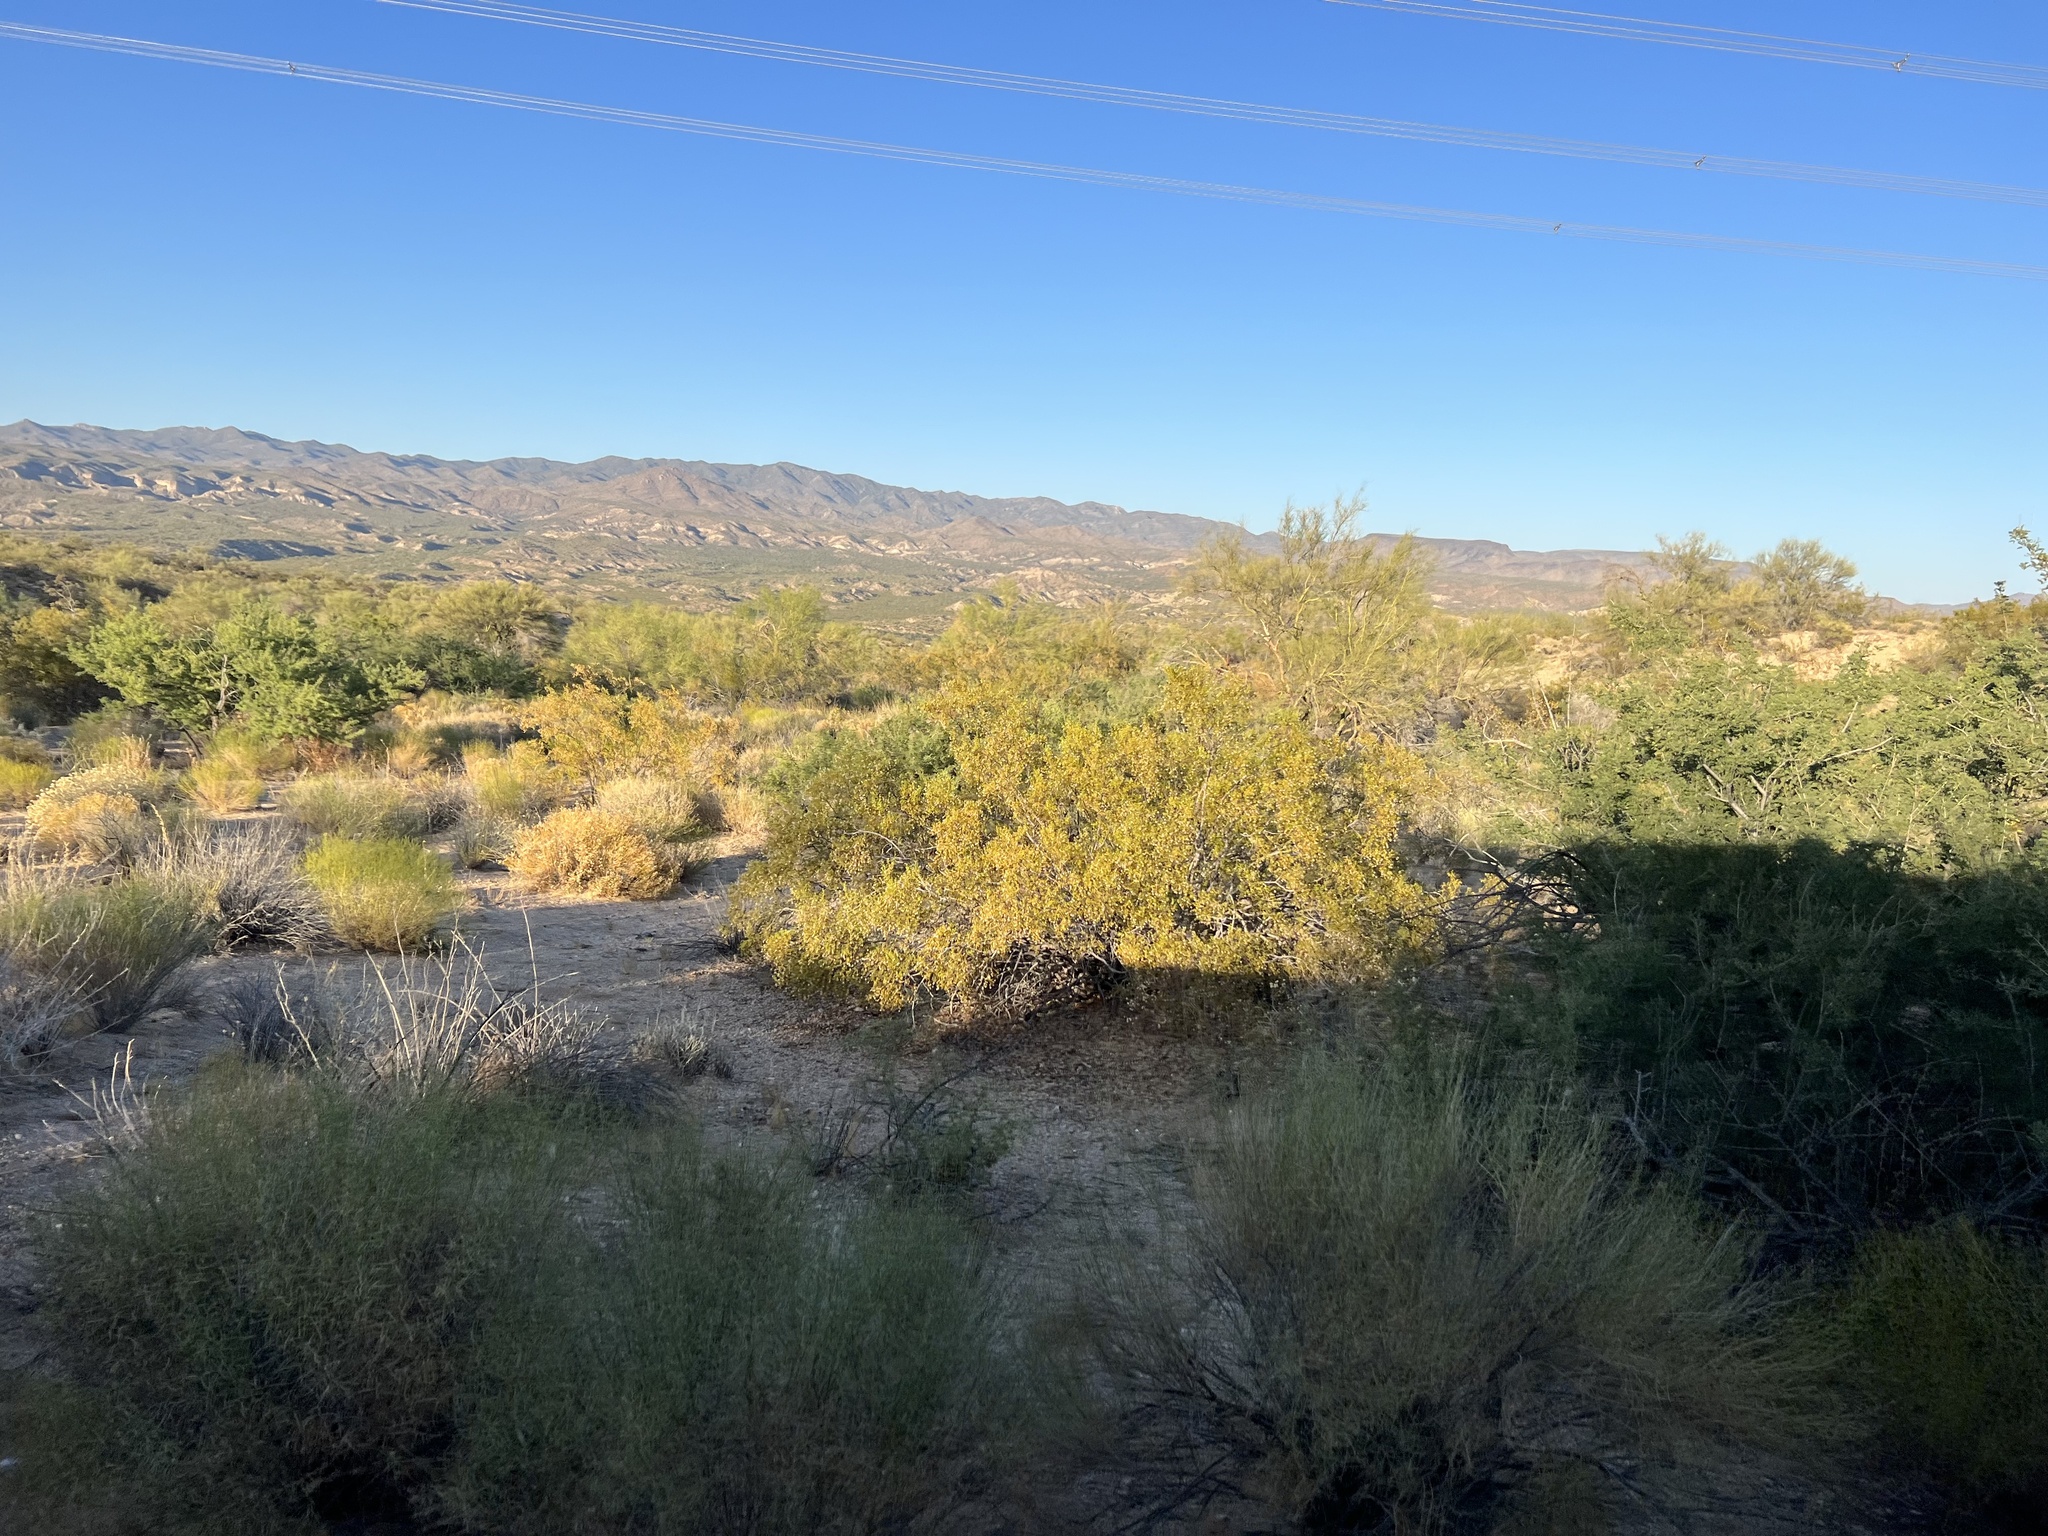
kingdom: Plantae
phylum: Tracheophyta
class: Magnoliopsida
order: Zygophyllales
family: Zygophyllaceae
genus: Larrea
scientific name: Larrea tridentata
